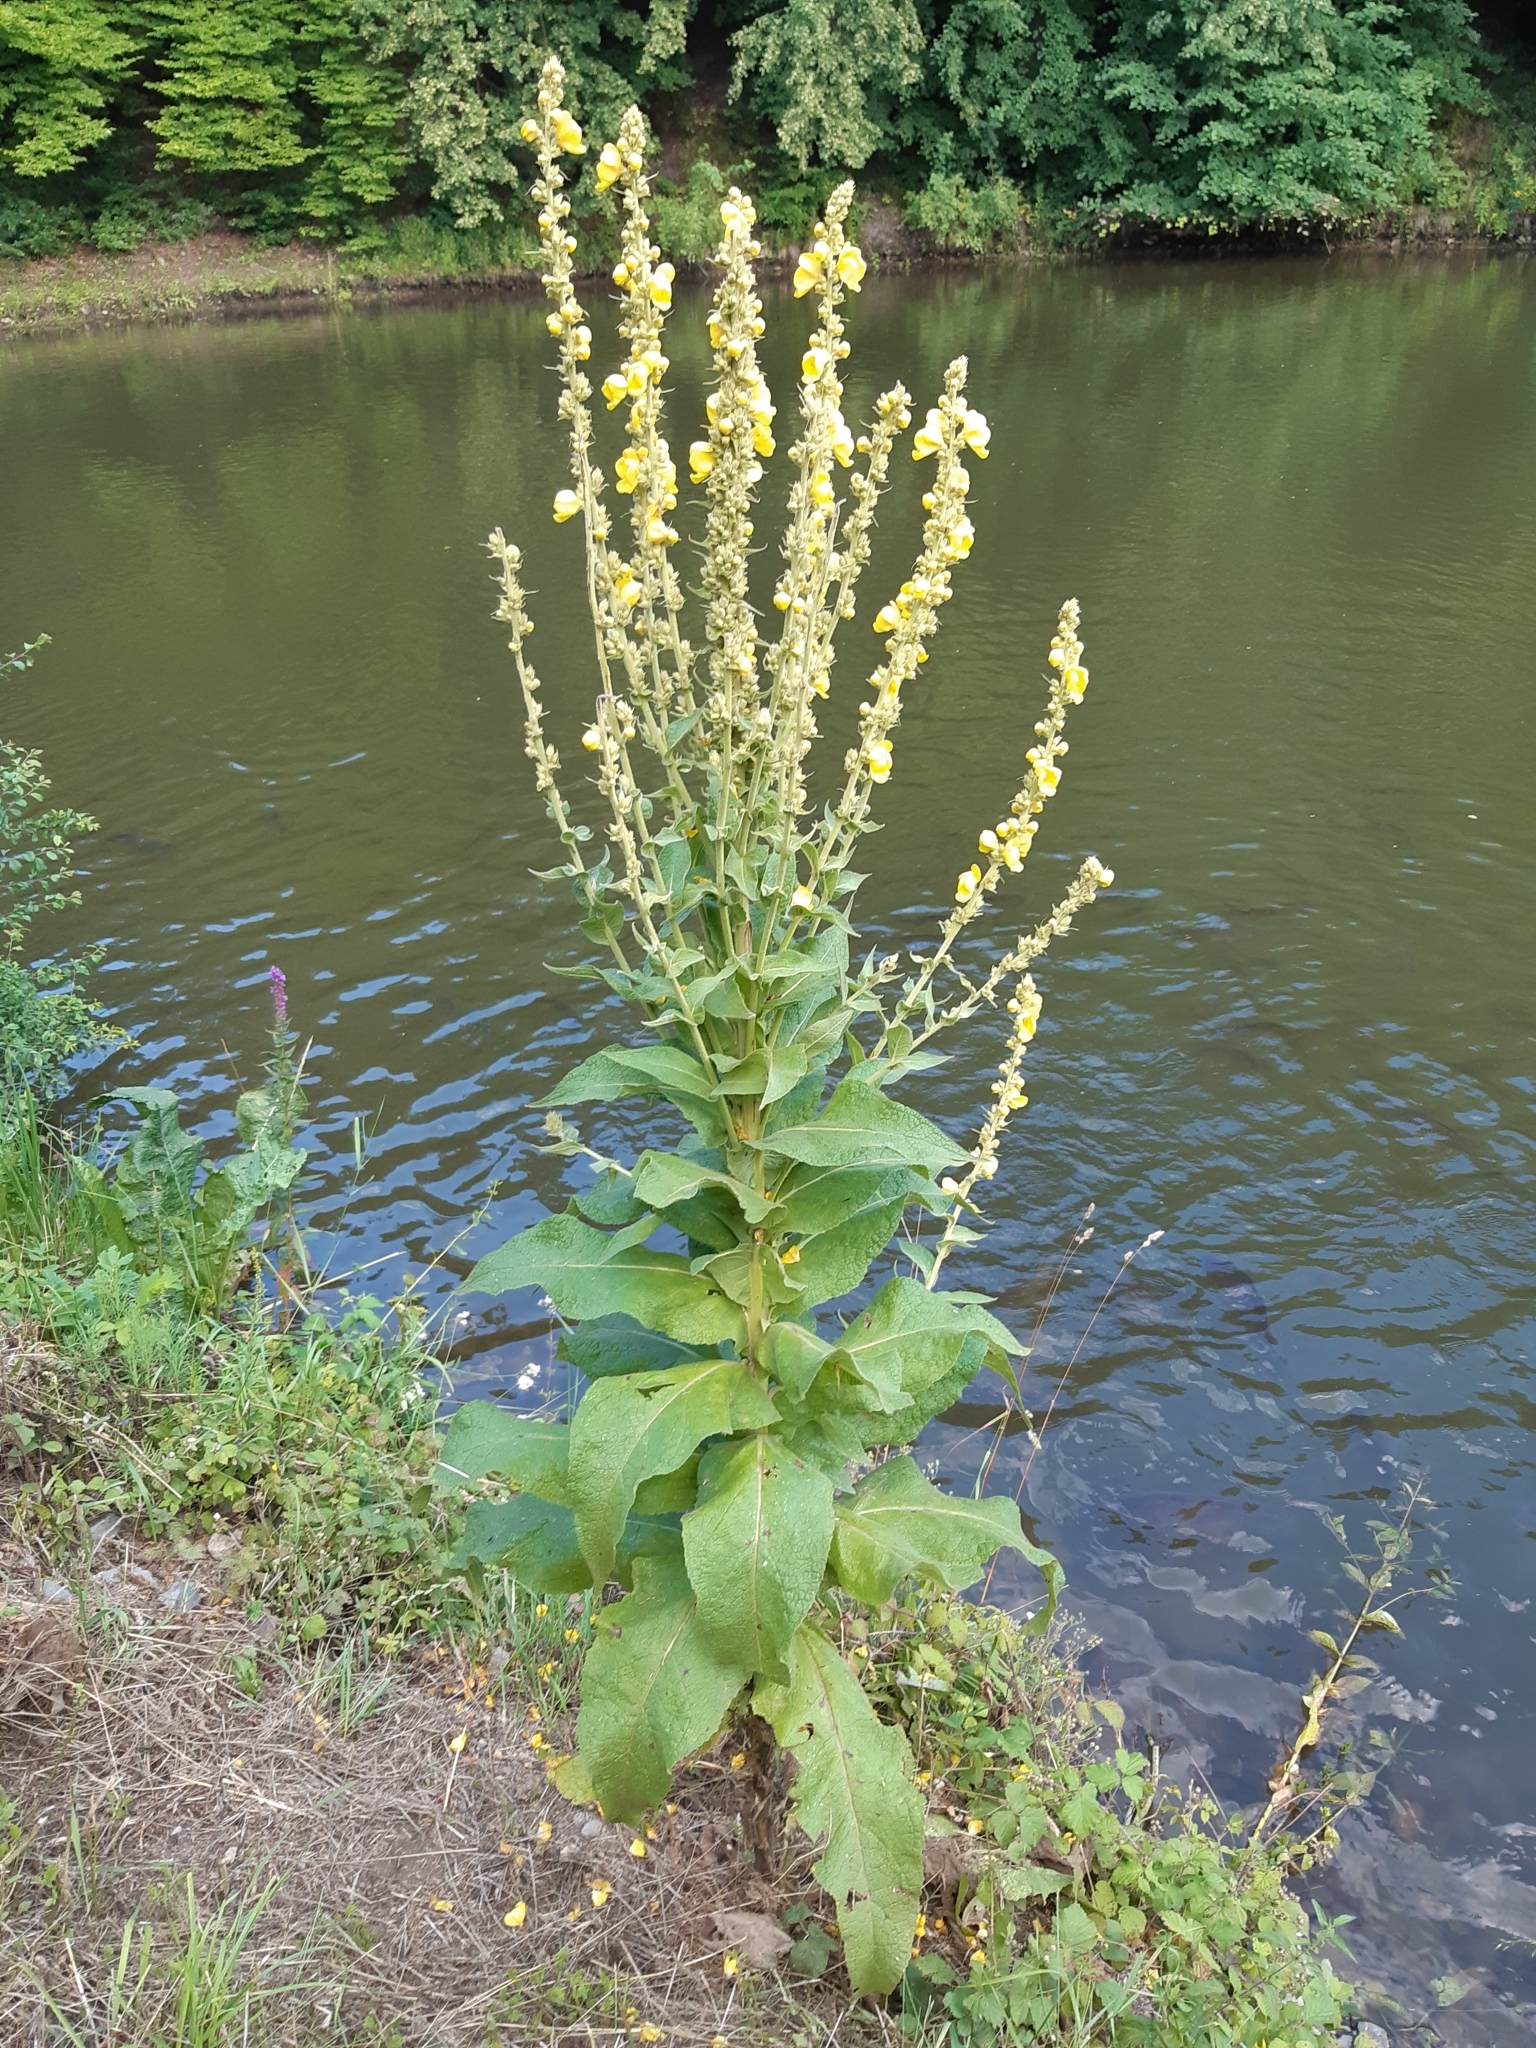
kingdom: Plantae
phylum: Tracheophyta
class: Magnoliopsida
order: Lamiales
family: Scrophulariaceae
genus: Verbascum
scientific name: Verbascum thapsus
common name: Common mullein
